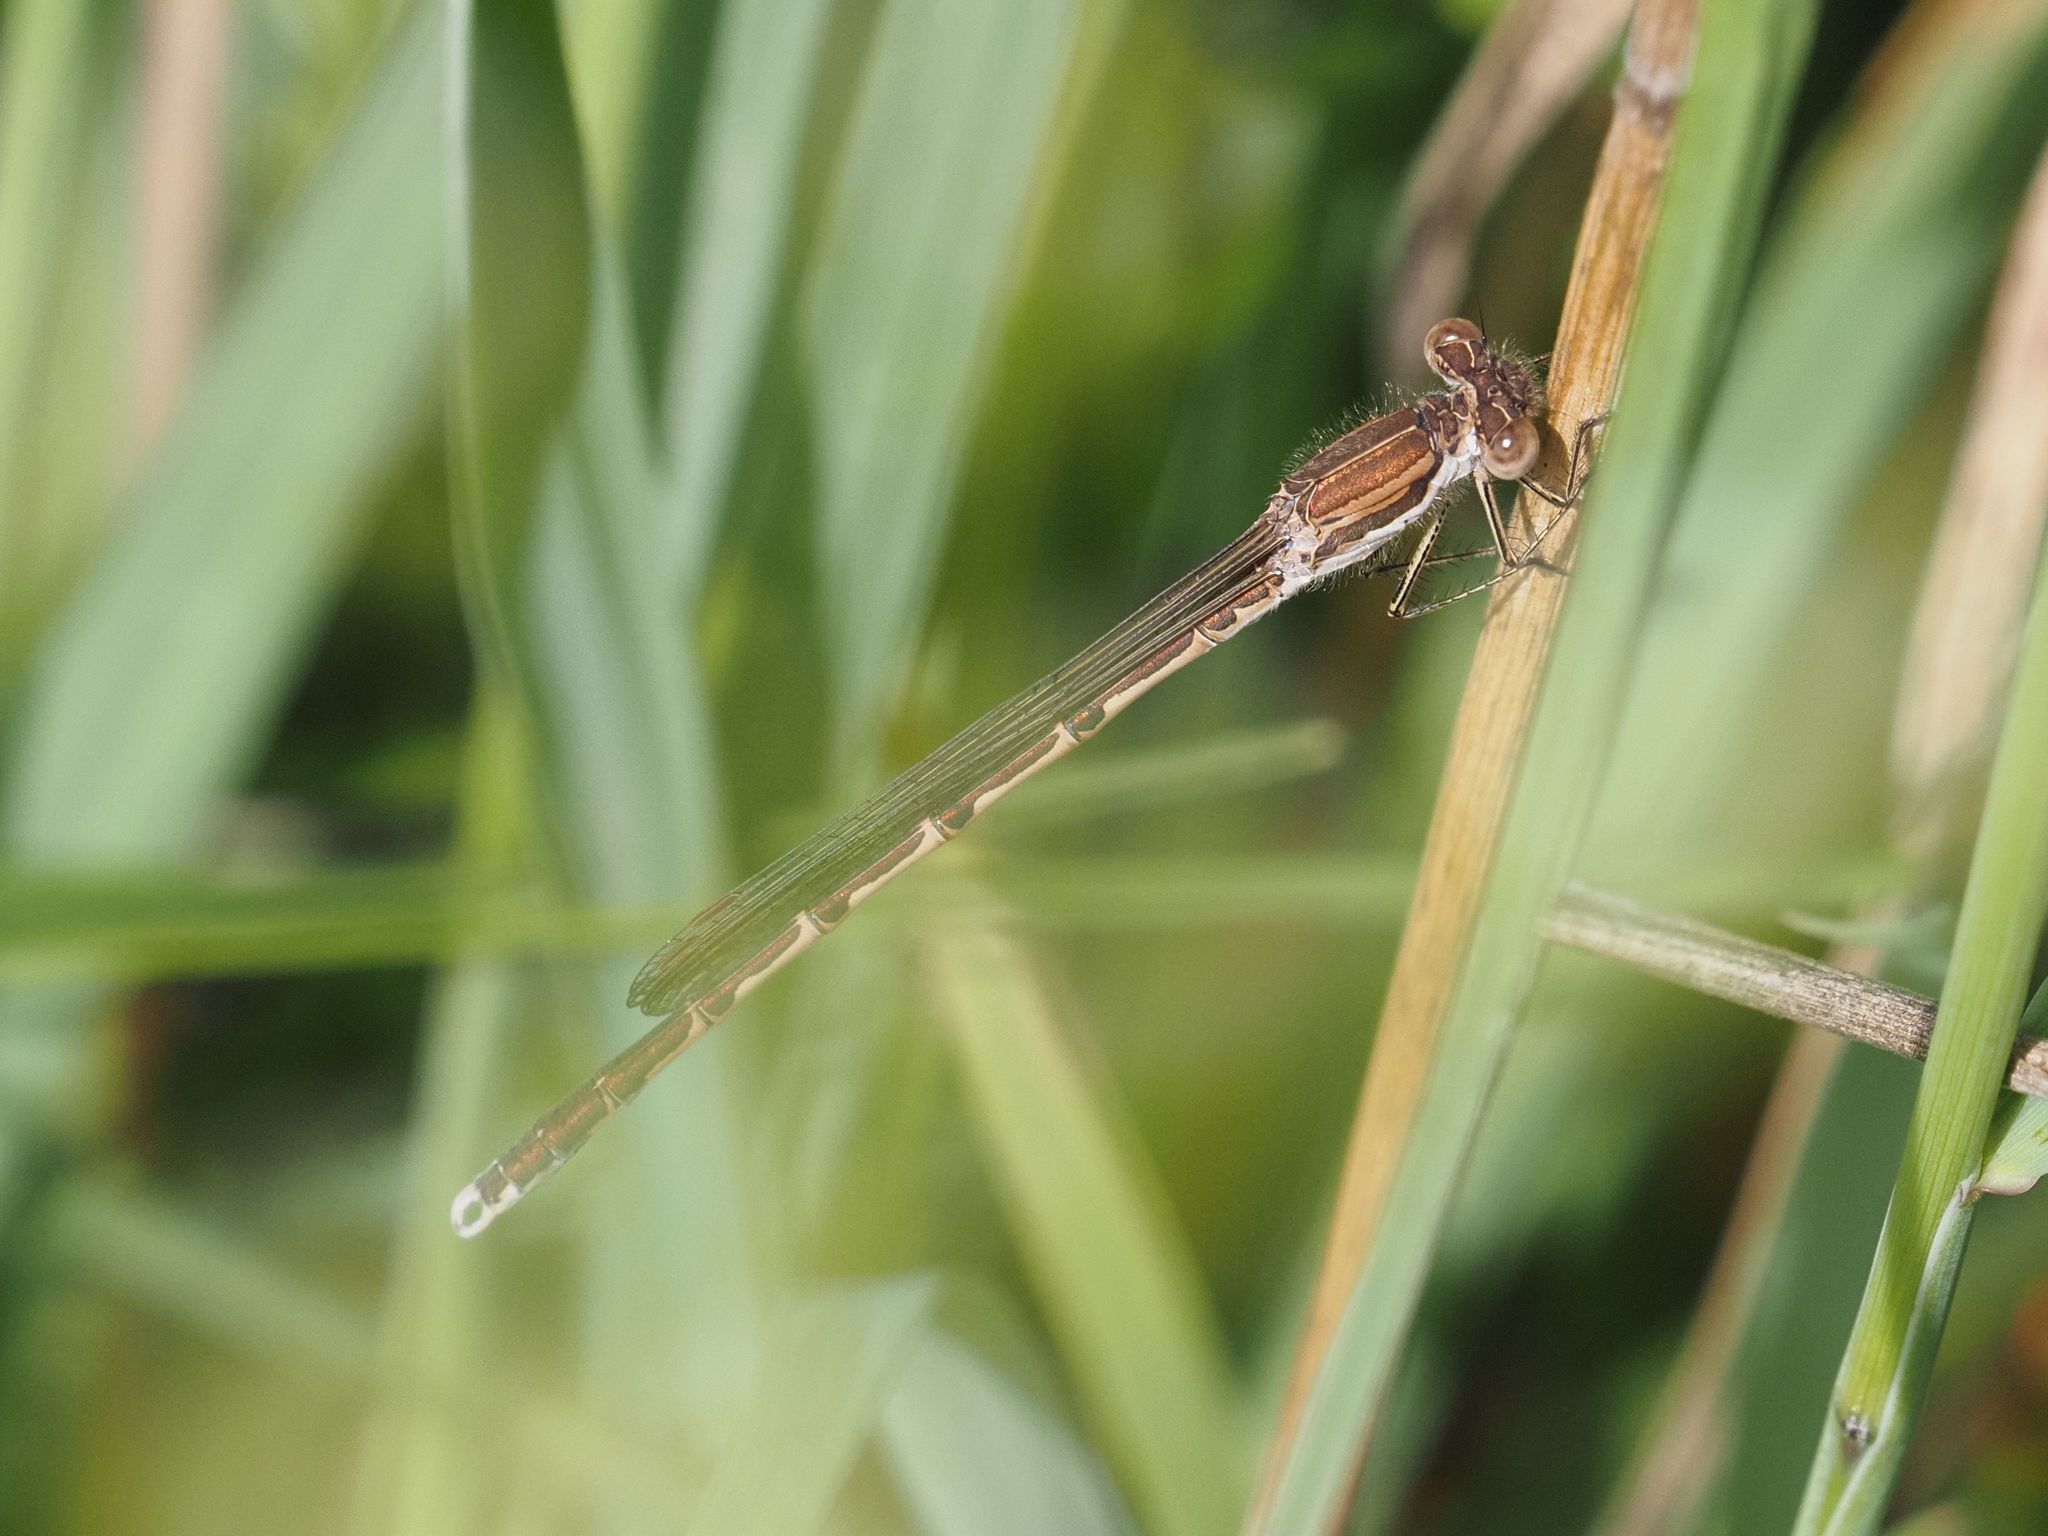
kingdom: Animalia
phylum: Arthropoda
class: Insecta
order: Odonata
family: Lestidae
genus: Sympecma
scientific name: Sympecma fusca
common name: Common winter damsel
